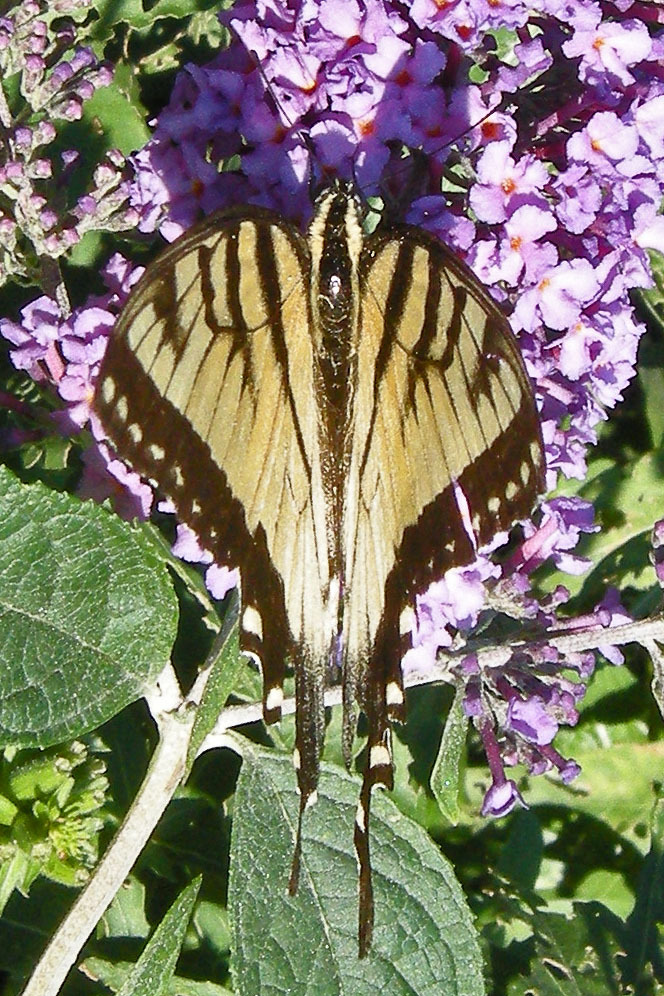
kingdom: Animalia
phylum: Arthropoda
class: Insecta
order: Lepidoptera
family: Papilionidae
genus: Papilio
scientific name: Papilio glaucus
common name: Tiger swallowtail
